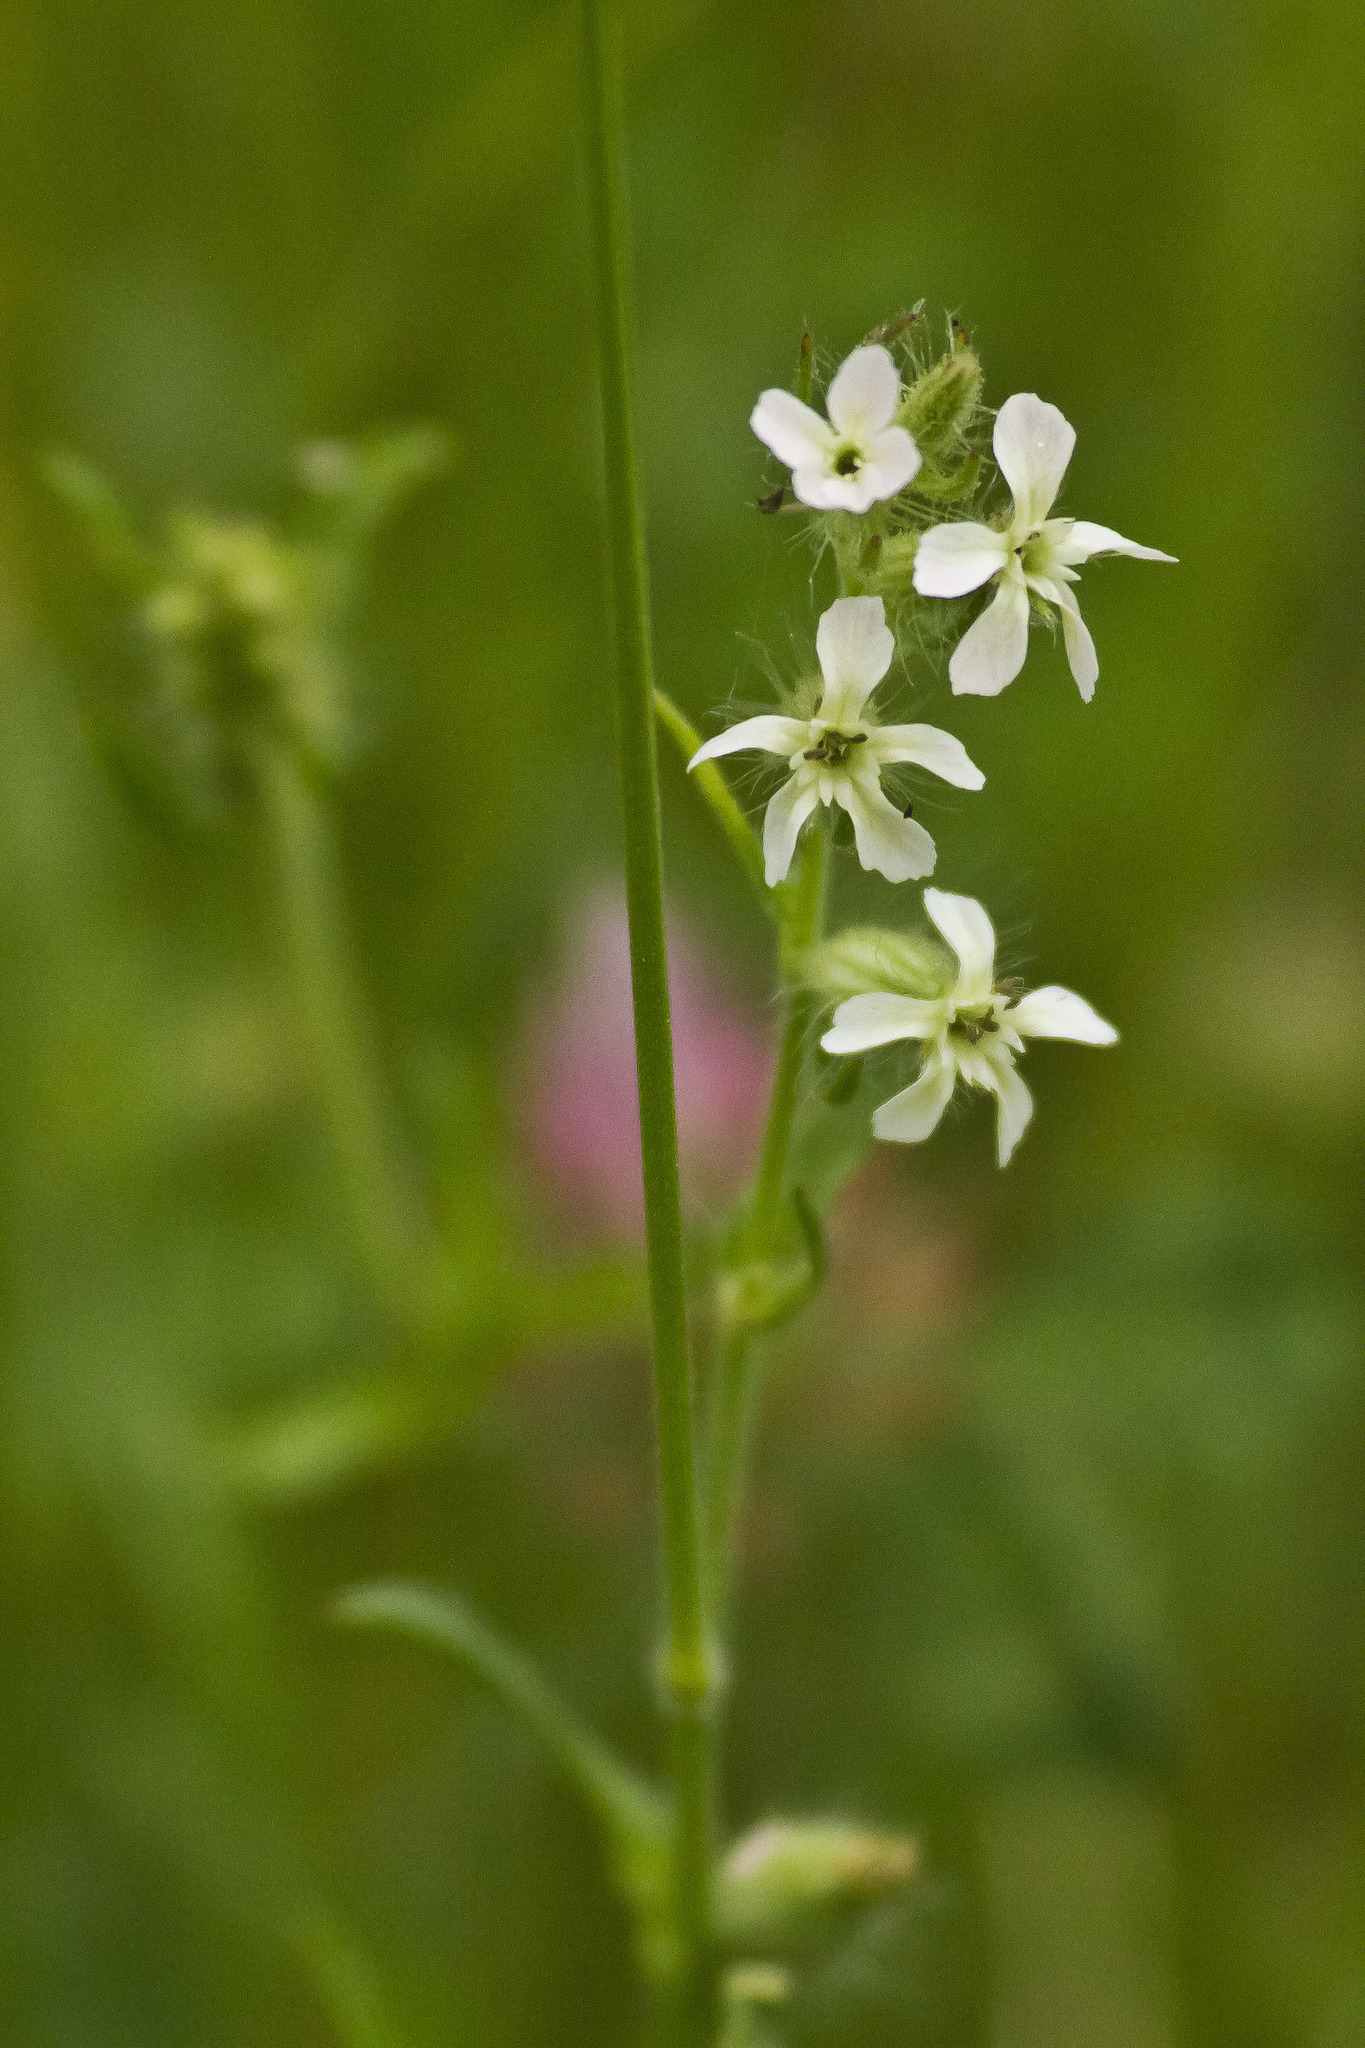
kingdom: Plantae
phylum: Tracheophyta
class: Magnoliopsida
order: Caryophyllales
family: Caryophyllaceae
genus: Silene
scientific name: Silene gallica
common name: Small-flowered catchfly
